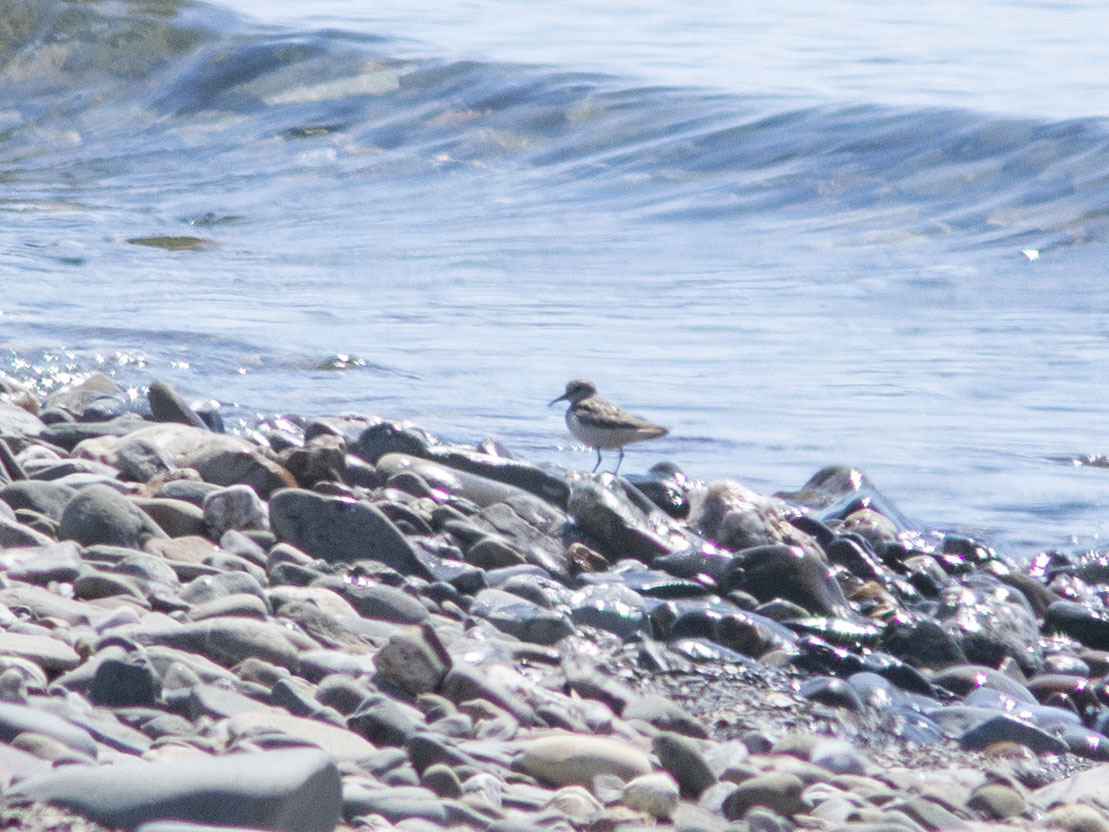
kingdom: Animalia
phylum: Chordata
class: Aves
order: Charadriiformes
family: Scolopacidae
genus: Calidris
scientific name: Calidris temminckii
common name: Temminck's stint
